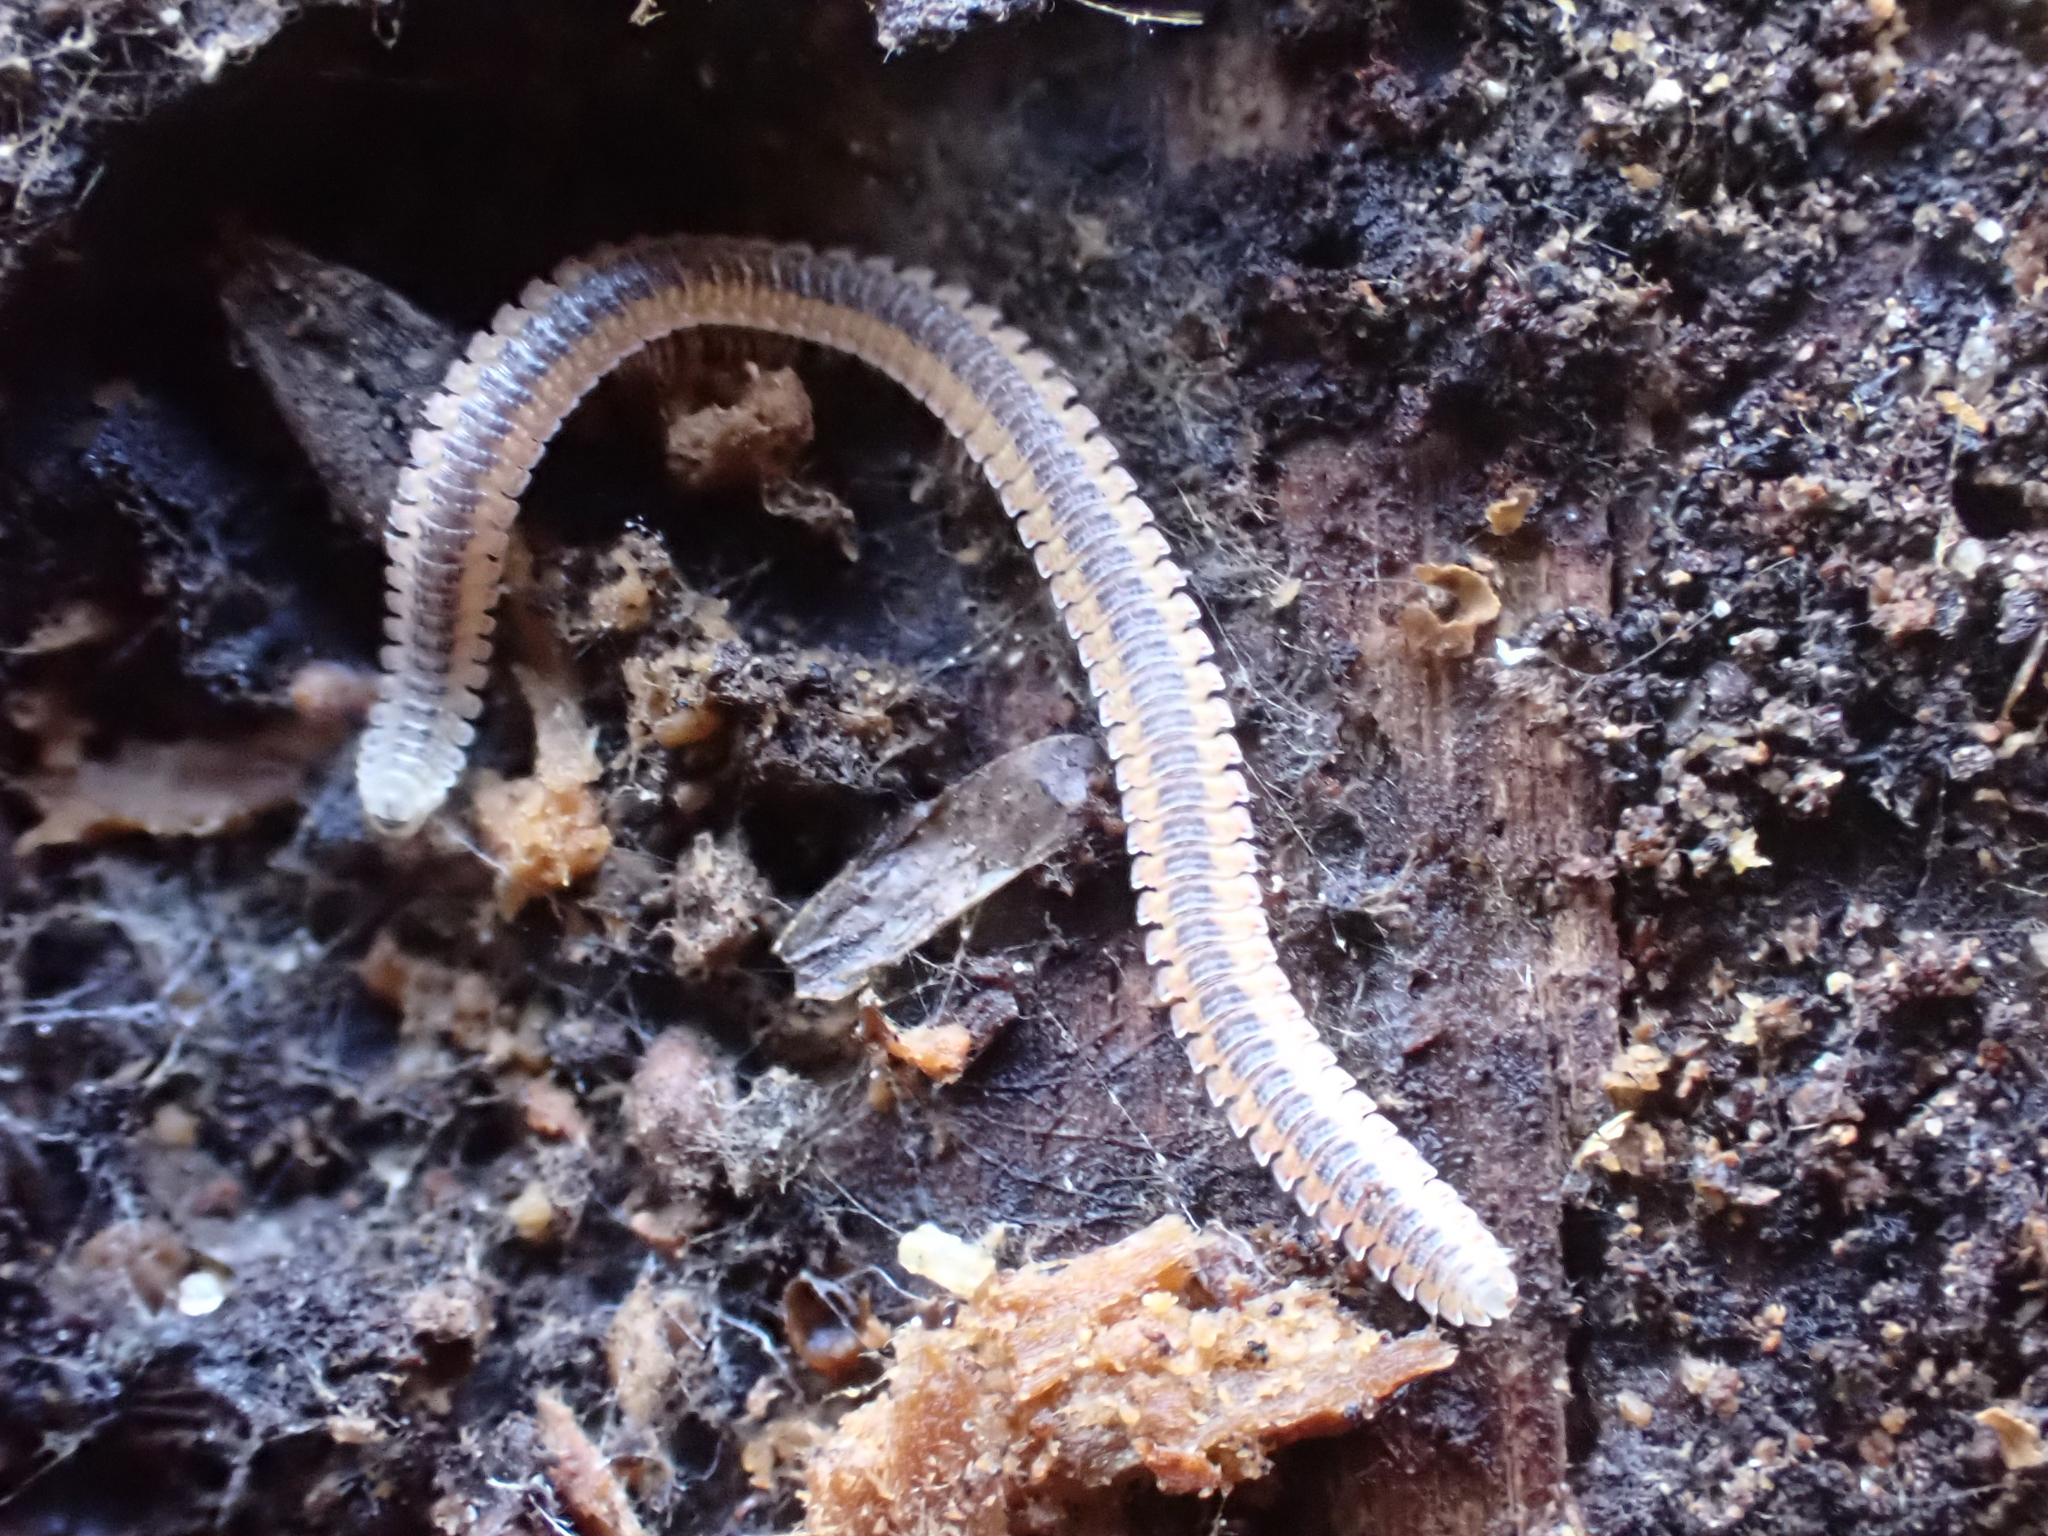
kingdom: Animalia
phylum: Arthropoda
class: Diplopoda
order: Platydesmida
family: Andrognathidae
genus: Gosodesmus
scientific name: Gosodesmus claremontus
